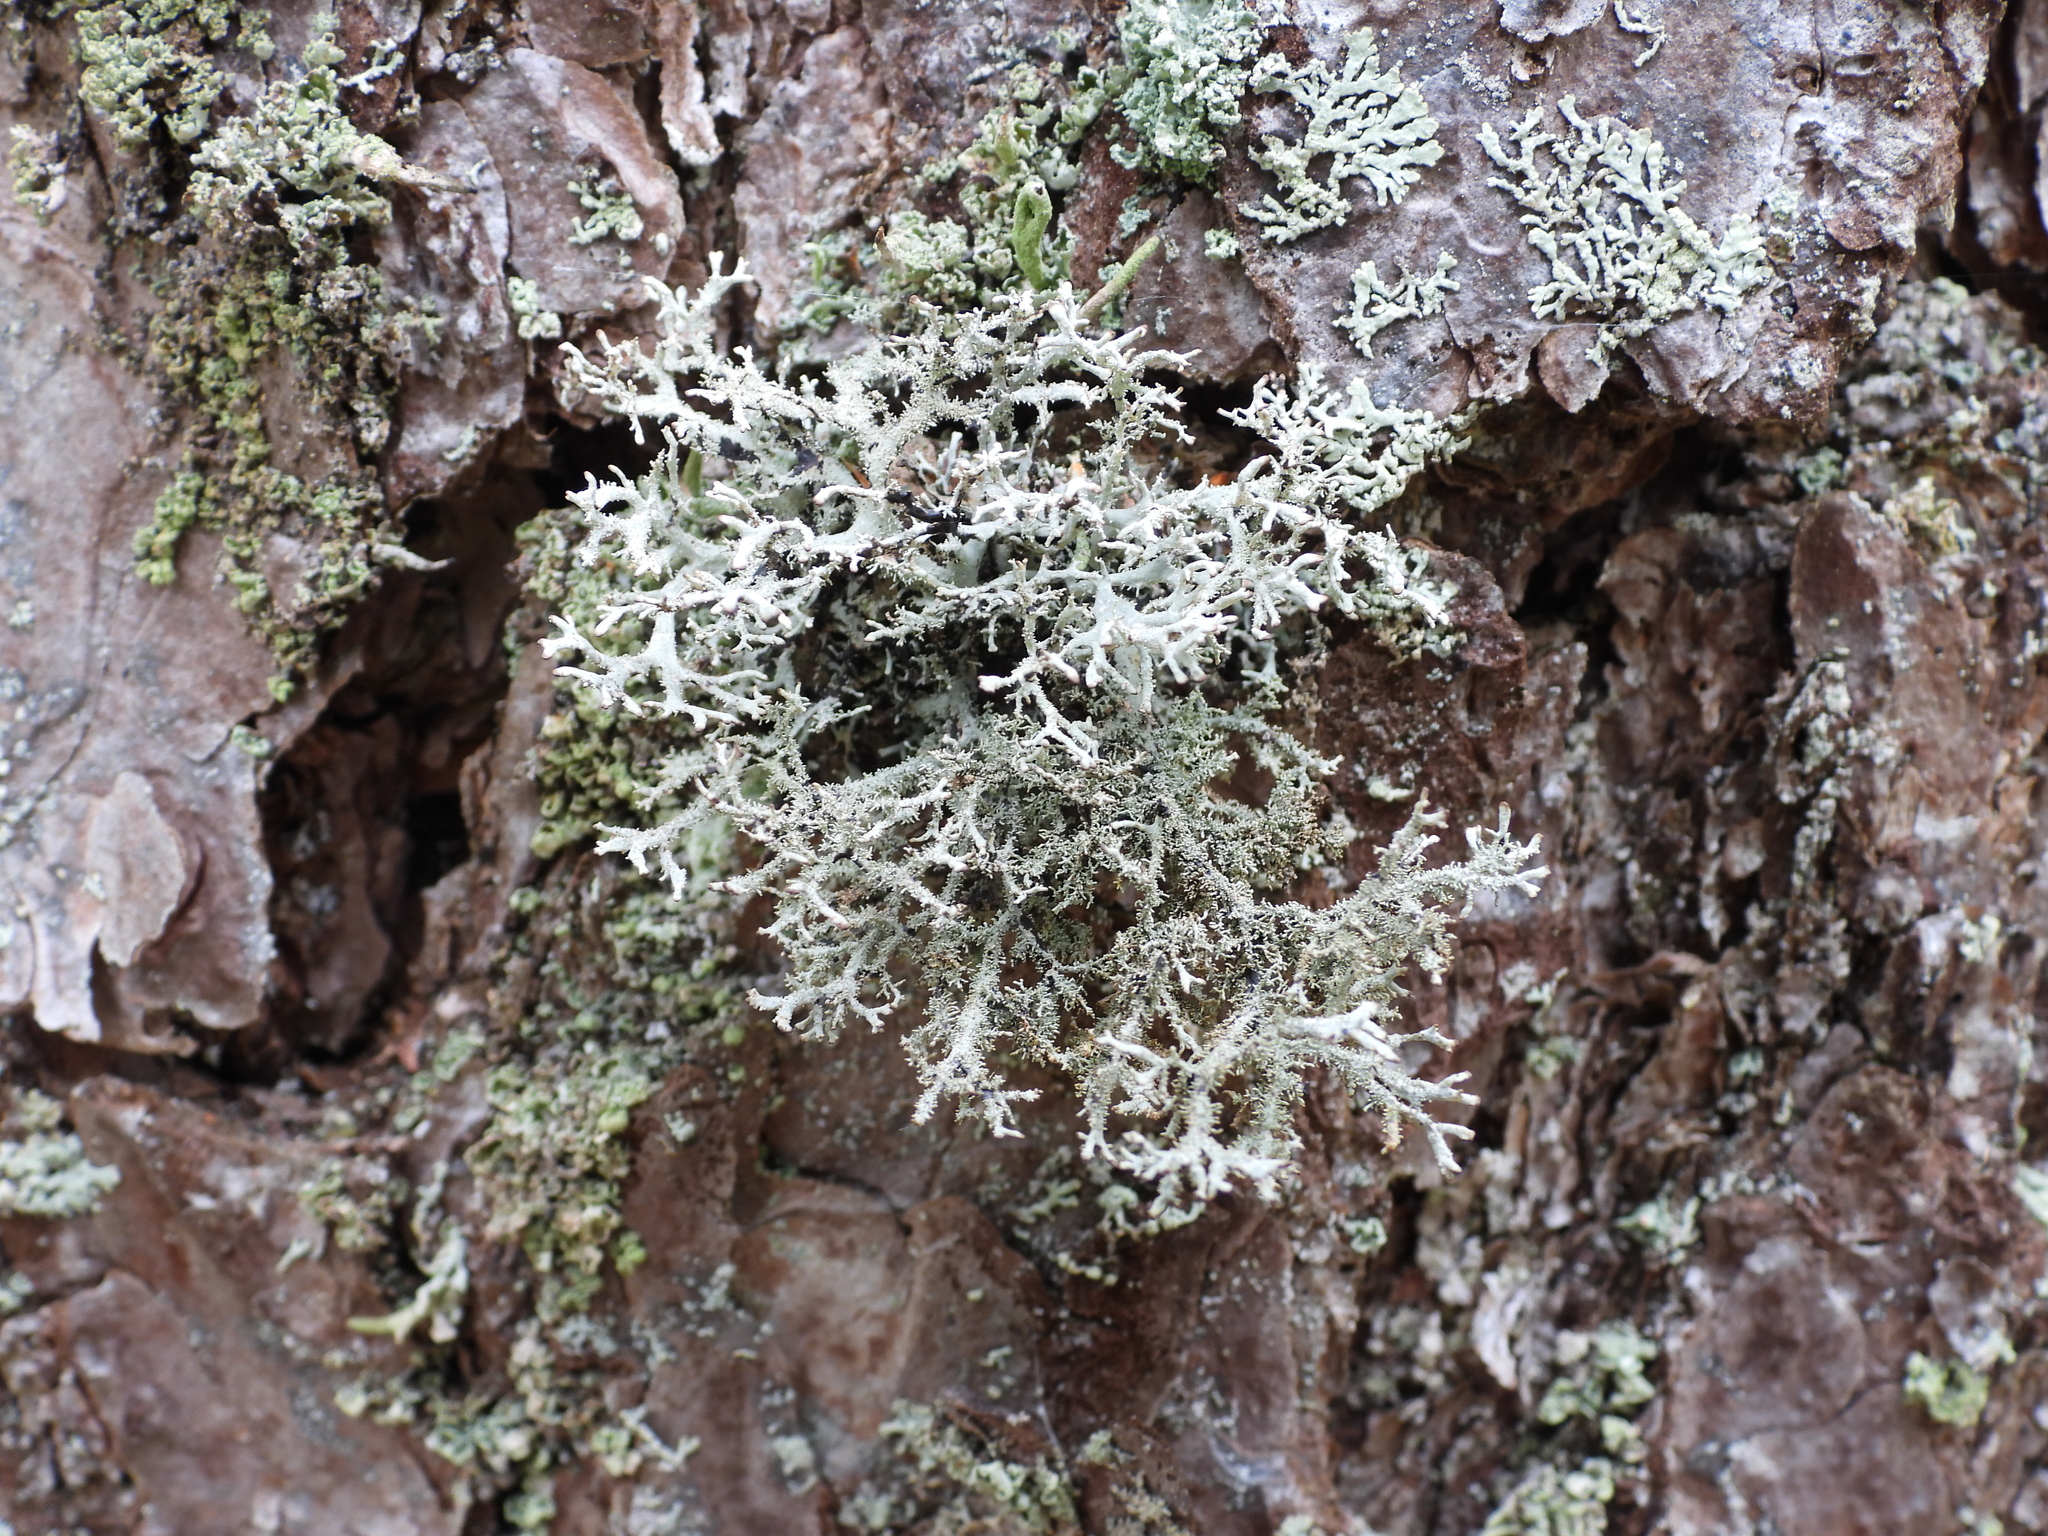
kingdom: Fungi
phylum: Ascomycota
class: Lecanoromycetes
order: Lecanorales
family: Parmeliaceae
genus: Pseudevernia
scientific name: Pseudevernia furfuracea
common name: Tree moss
